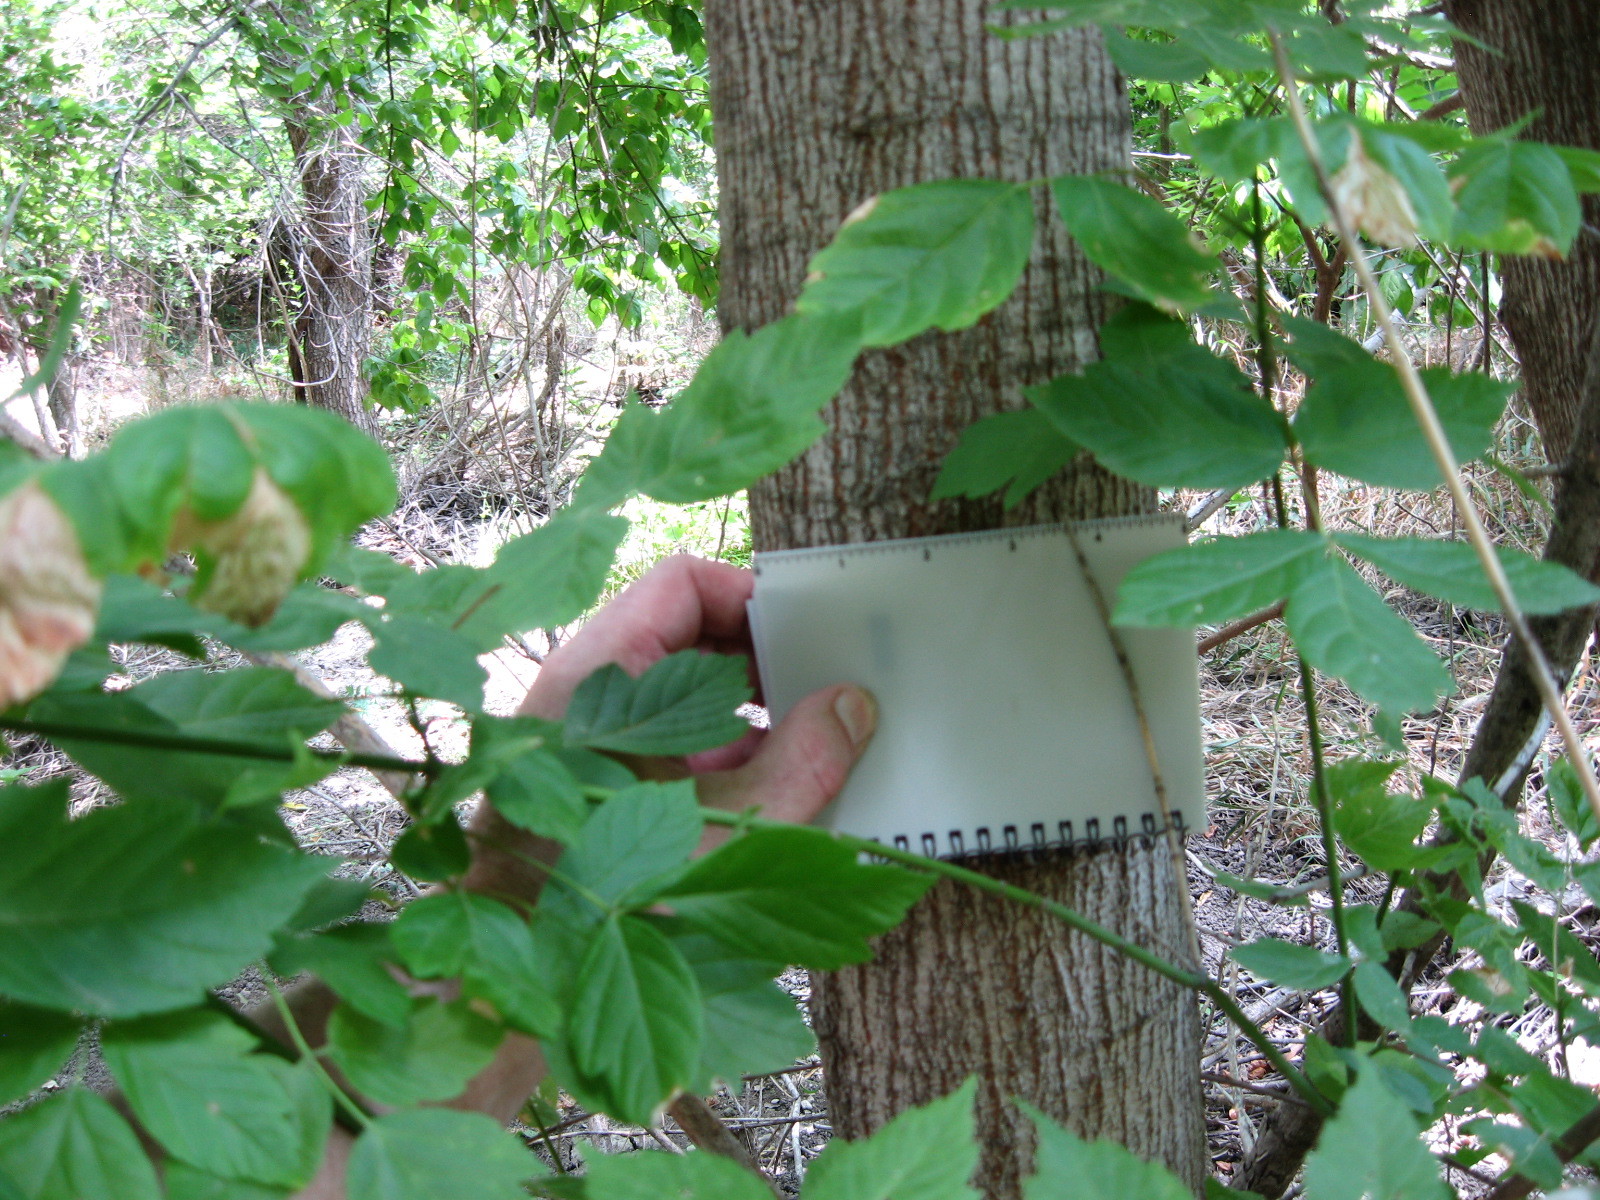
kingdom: Plantae
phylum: Tracheophyta
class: Magnoliopsida
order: Malpighiales
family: Euphorbiaceae
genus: Triadica
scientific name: Triadica sebifera
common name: Chinese tallow
